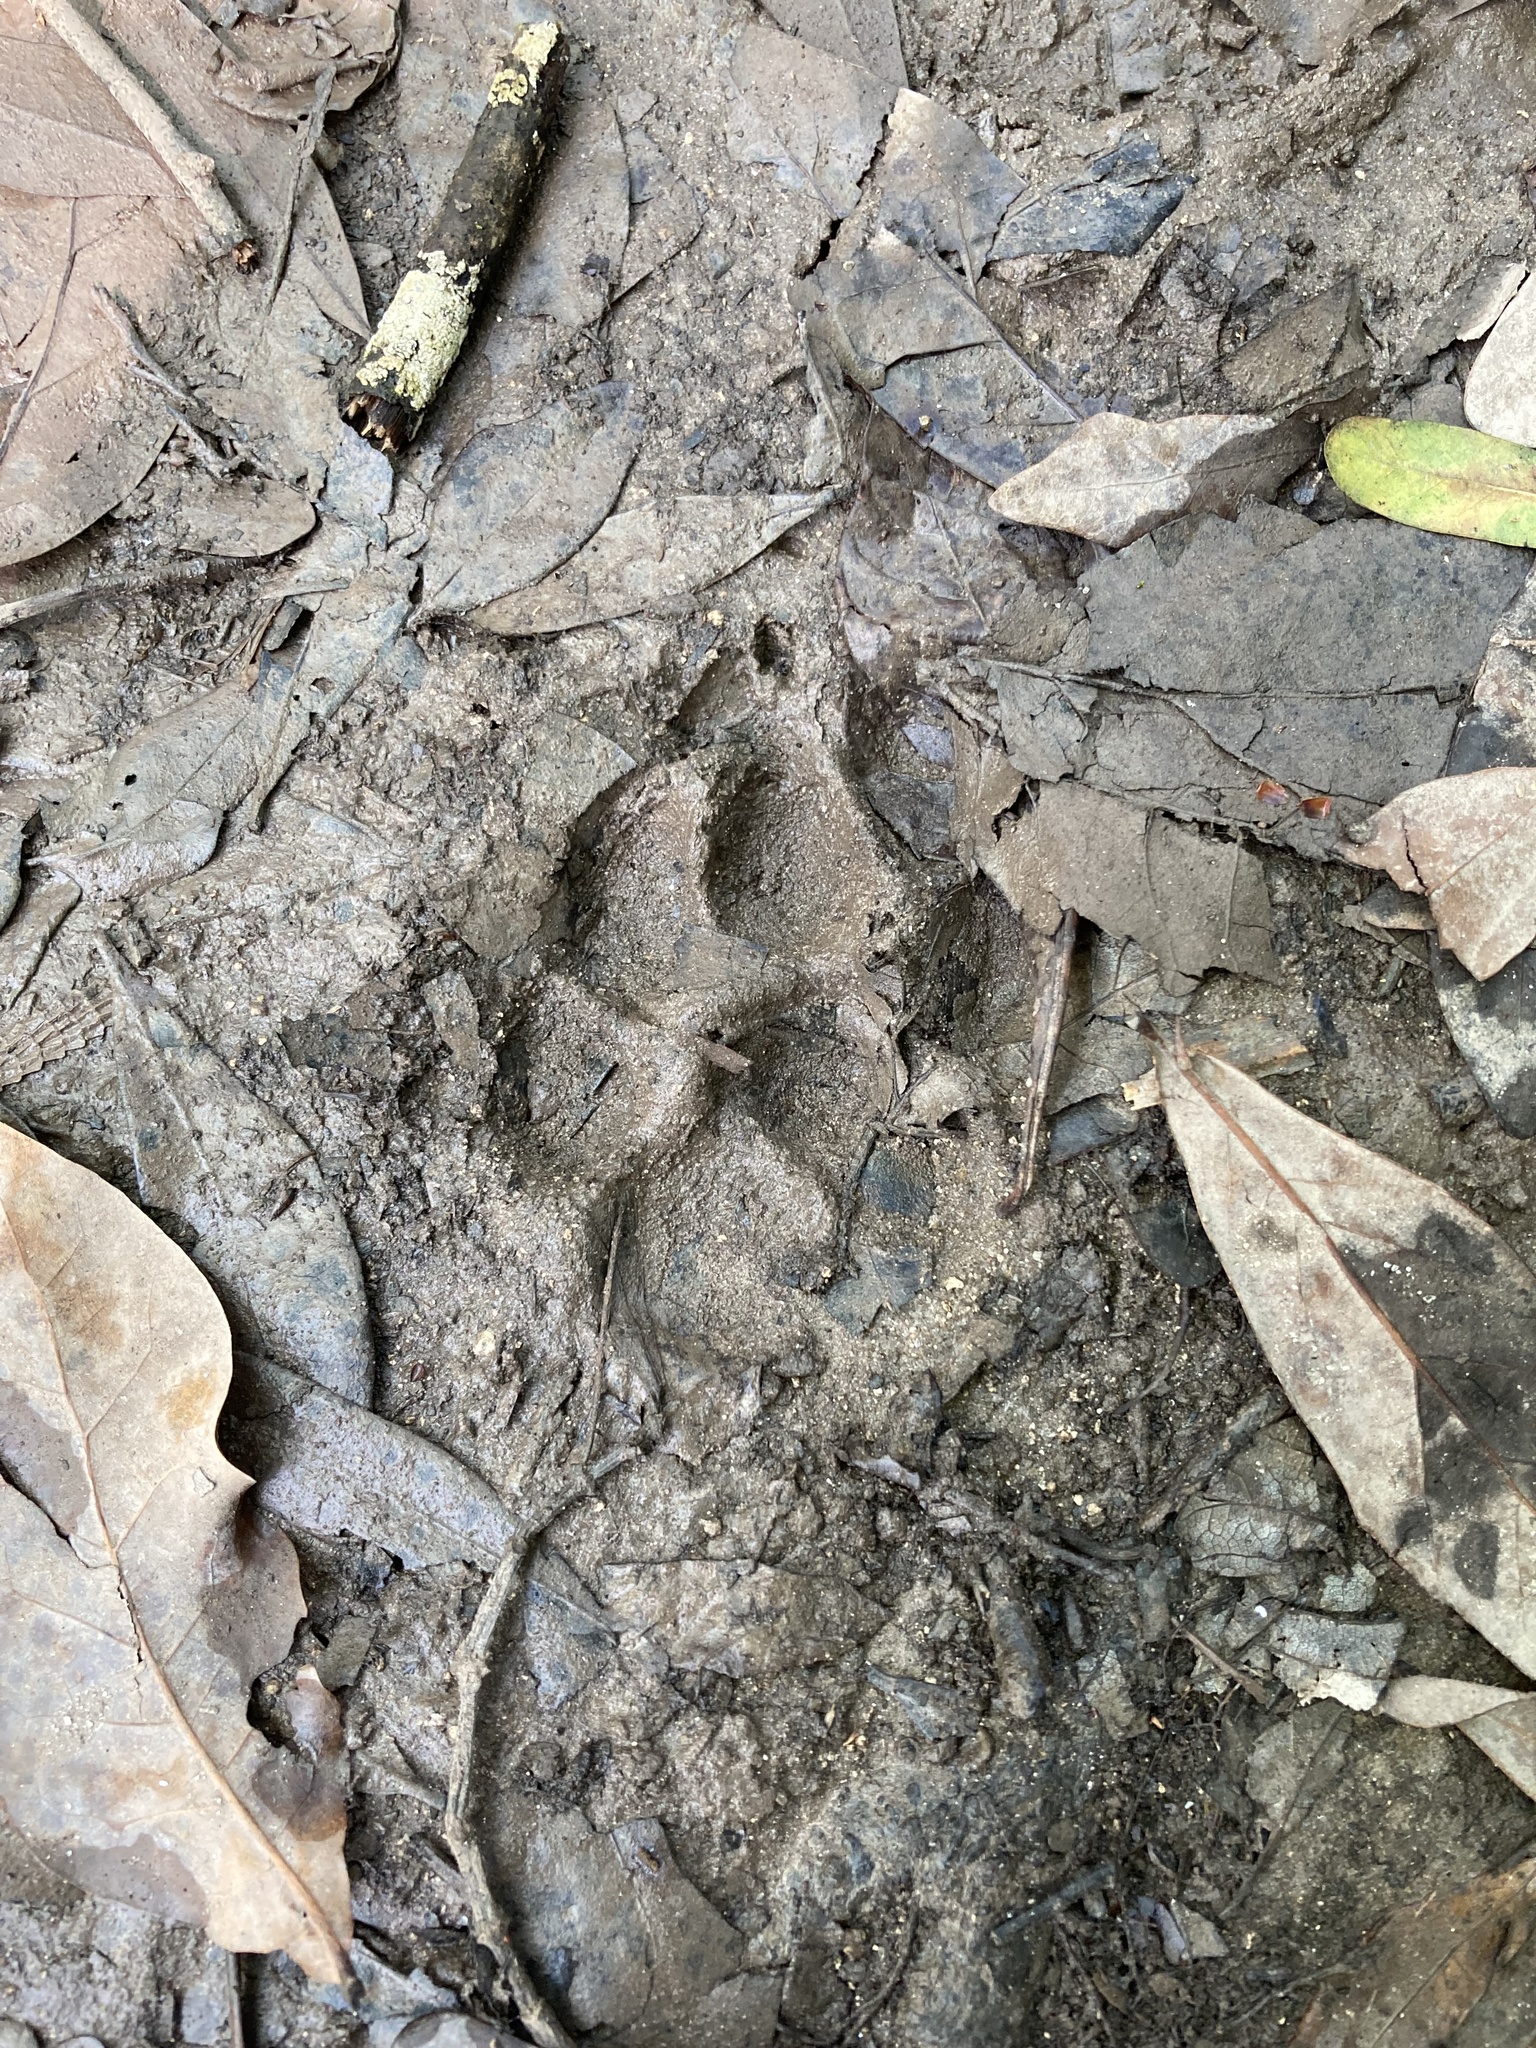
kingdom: Animalia
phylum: Chordata
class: Mammalia
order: Carnivora
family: Canidae
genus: Canis
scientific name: Canis latrans
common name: Coyote
